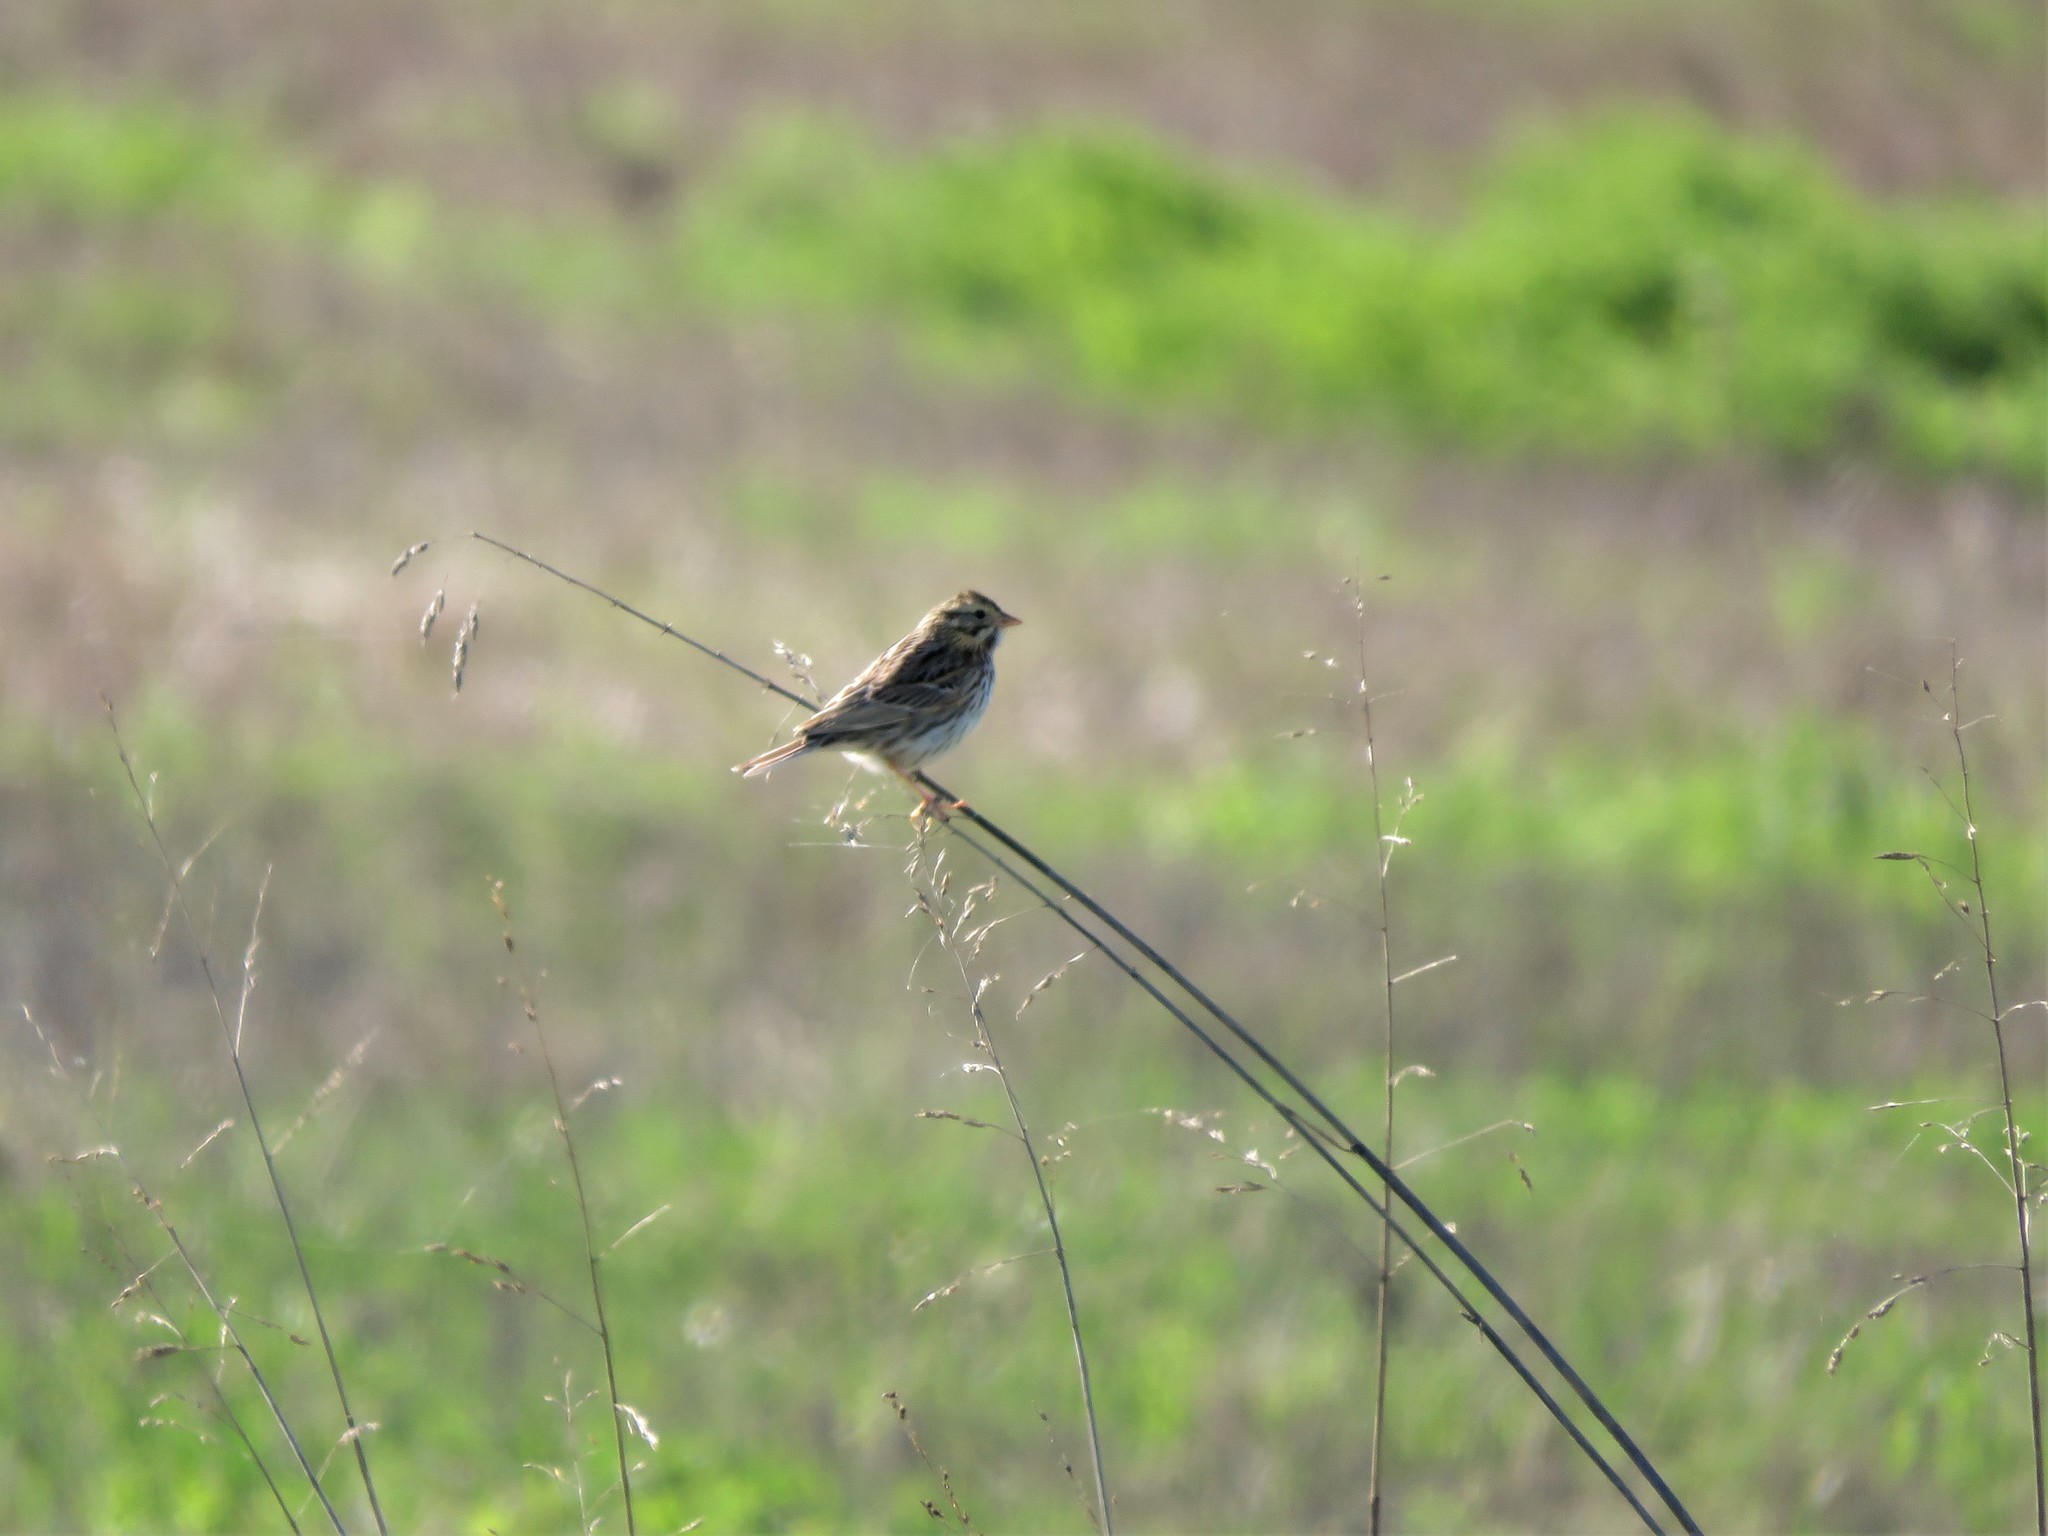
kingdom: Animalia
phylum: Chordata
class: Aves
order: Passeriformes
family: Passerellidae
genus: Passerculus
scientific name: Passerculus sandwichensis
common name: Savannah sparrow
